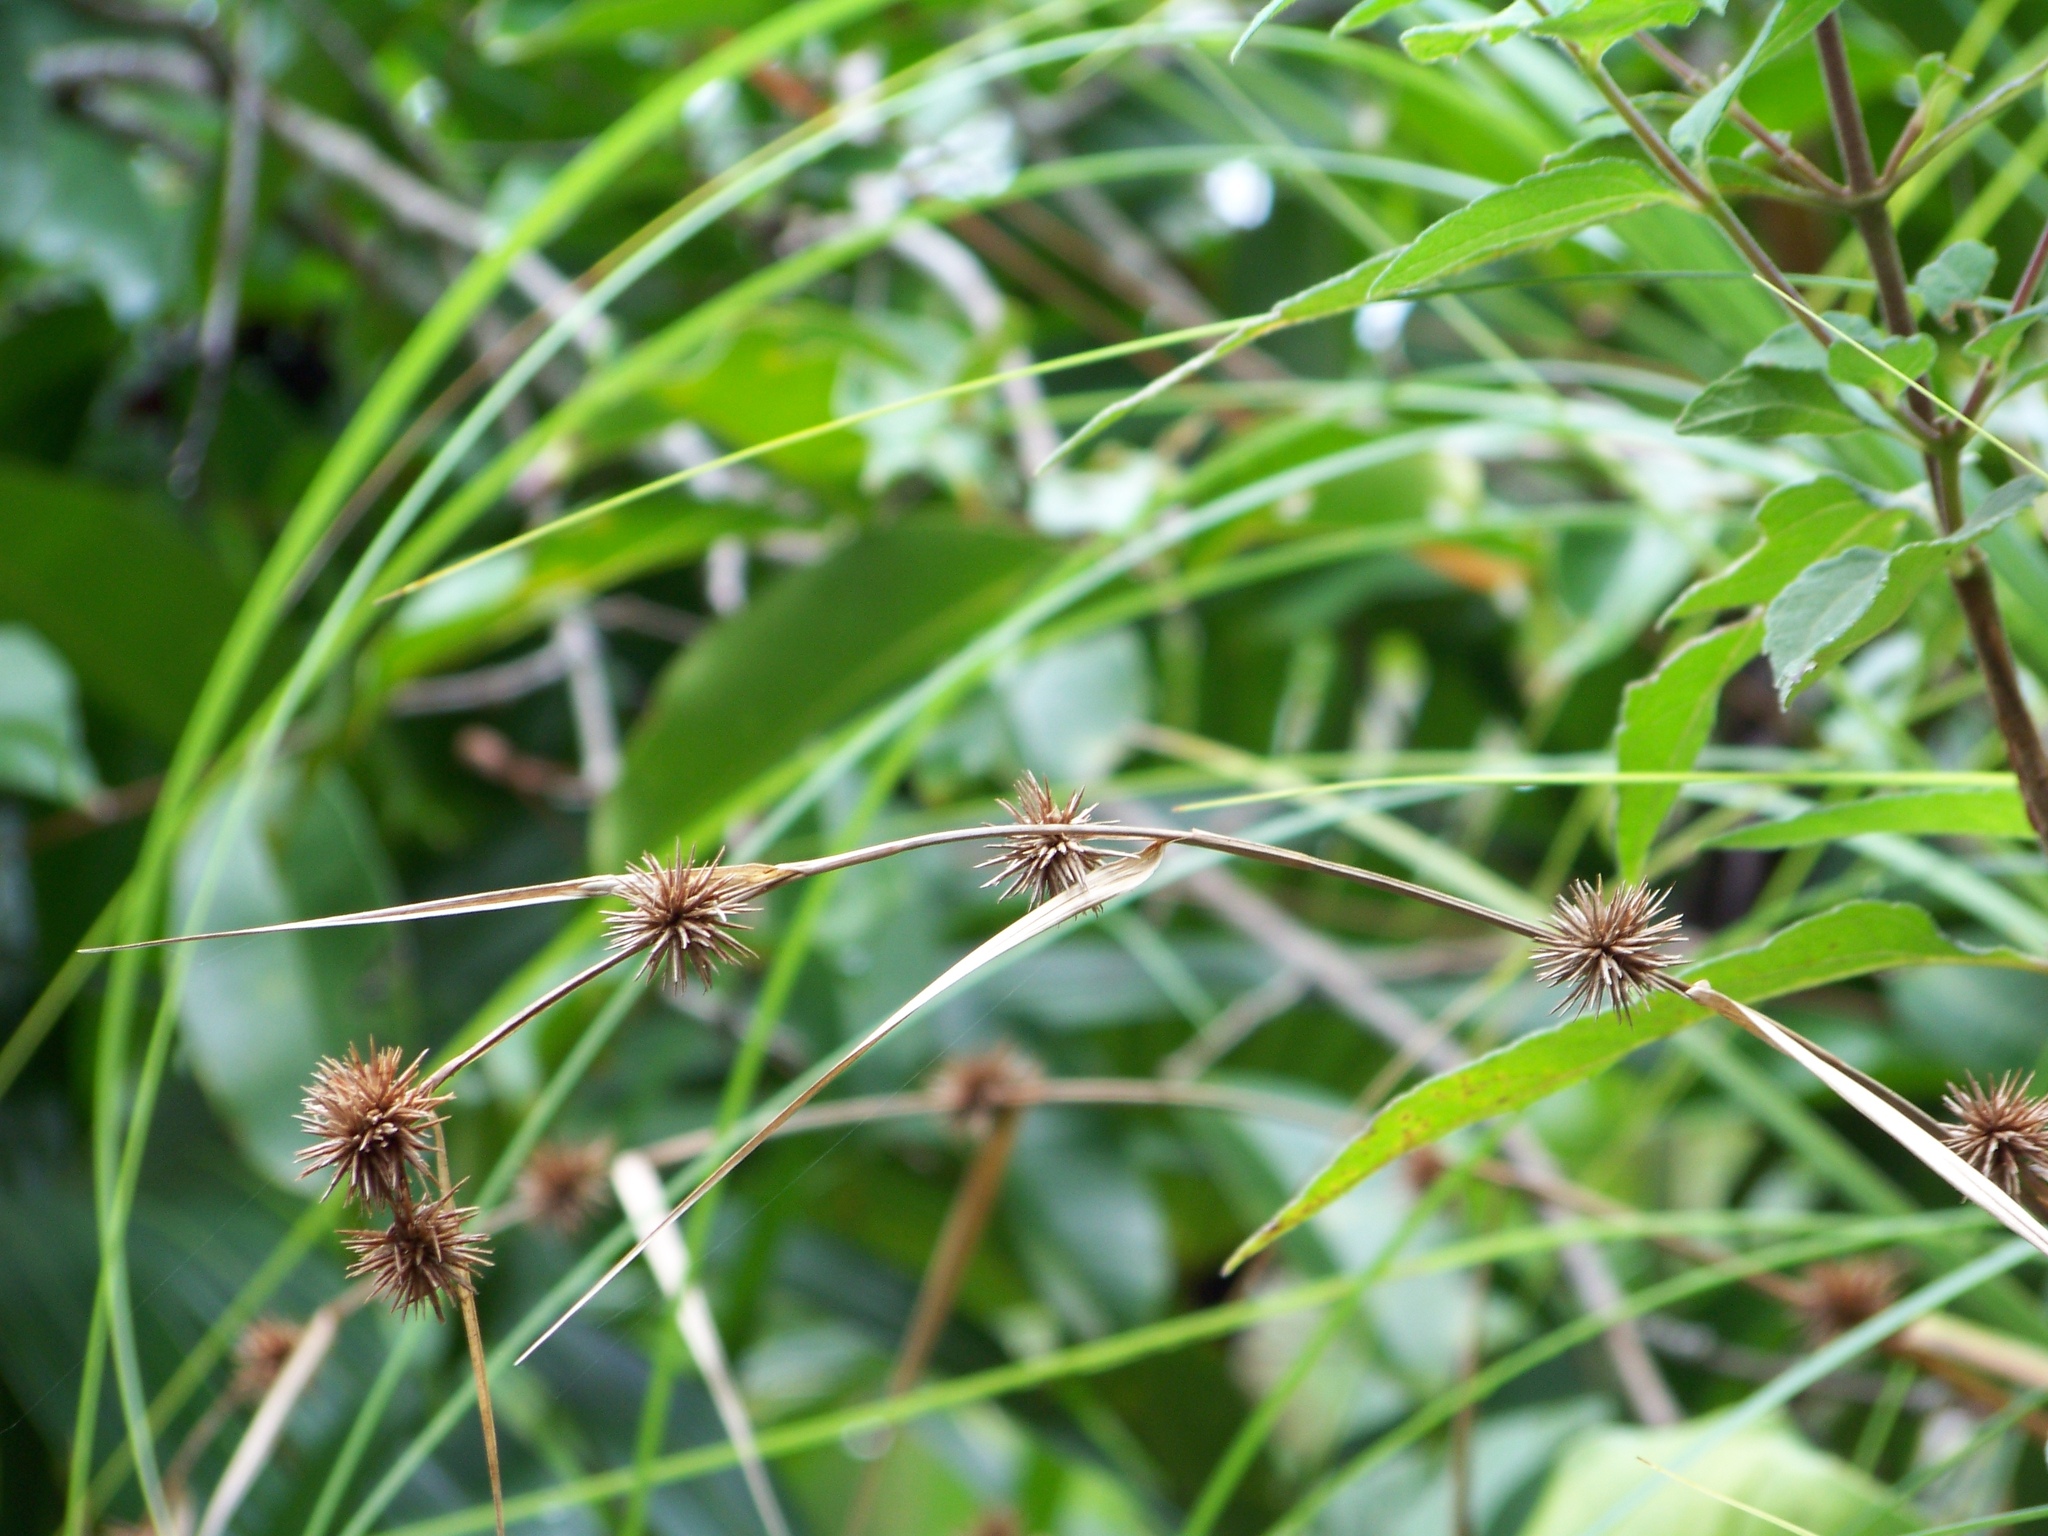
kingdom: Plantae
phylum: Tracheophyta
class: Liliopsida
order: Poales
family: Cyperaceae
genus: Rhynchospora
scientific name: Rhynchospora exaltata
